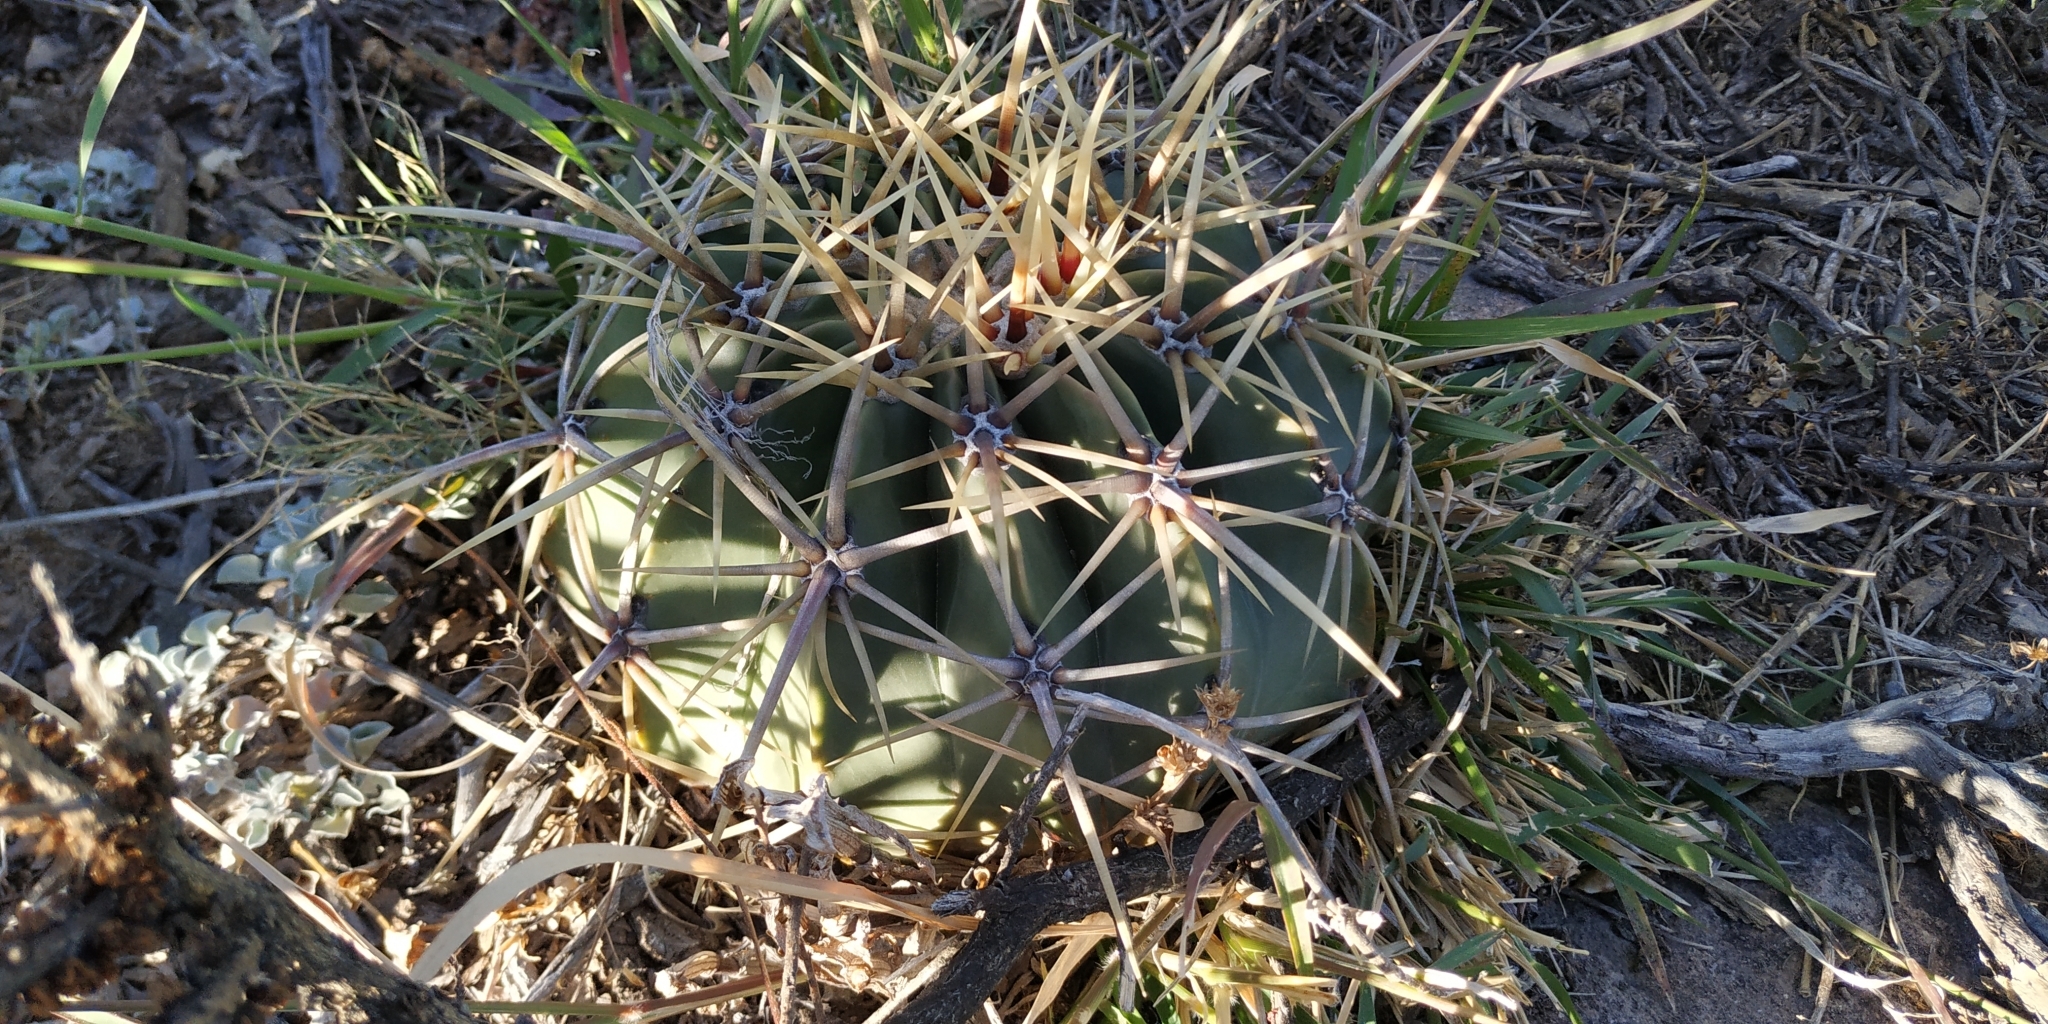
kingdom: Plantae
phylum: Tracheophyta
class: Magnoliopsida
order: Caryophyllales
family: Cactaceae
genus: Bisnaga
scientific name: Bisnaga histrix
